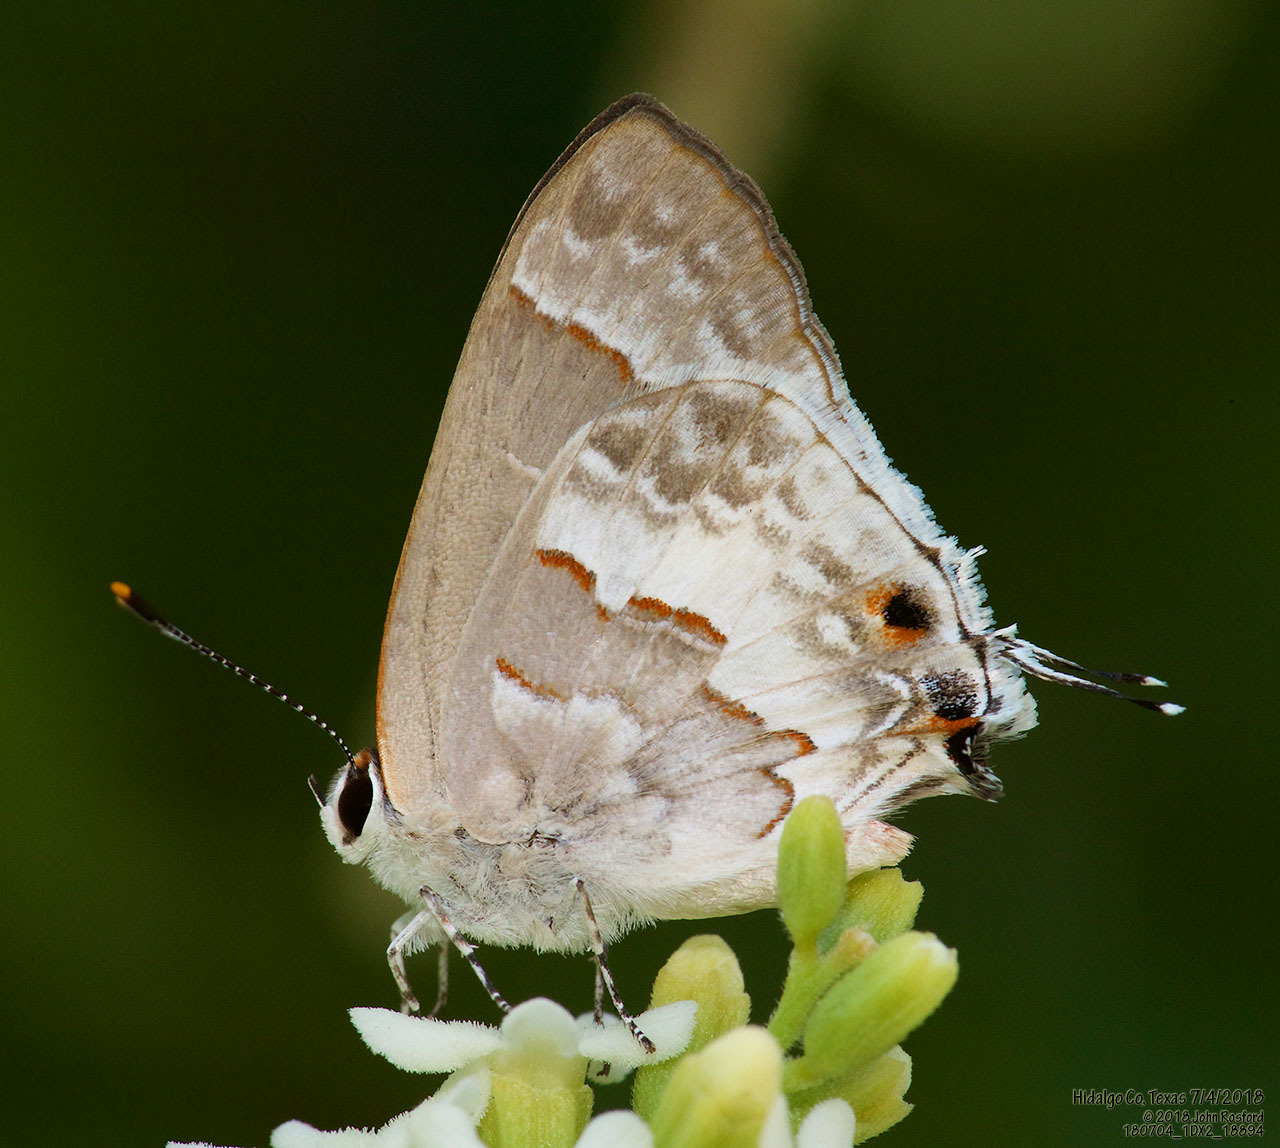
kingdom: Animalia
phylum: Arthropoda
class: Insecta
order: Lepidoptera
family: Lycaenidae
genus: Strymon
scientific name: Strymon albata
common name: White scrub-hairstreak
